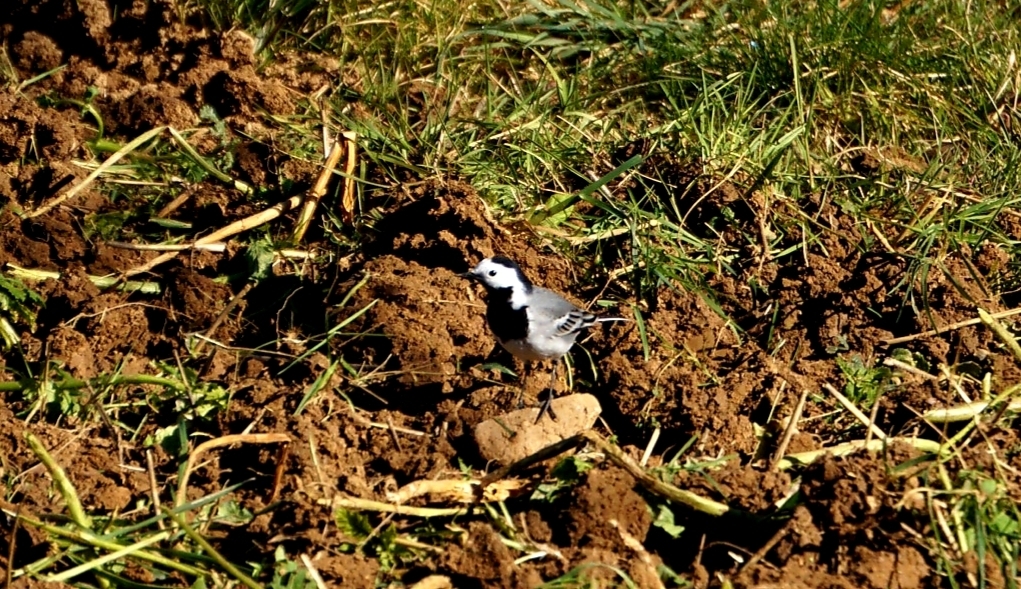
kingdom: Animalia
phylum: Chordata
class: Aves
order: Passeriformes
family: Motacillidae
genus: Motacilla
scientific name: Motacilla alba
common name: White wagtail
